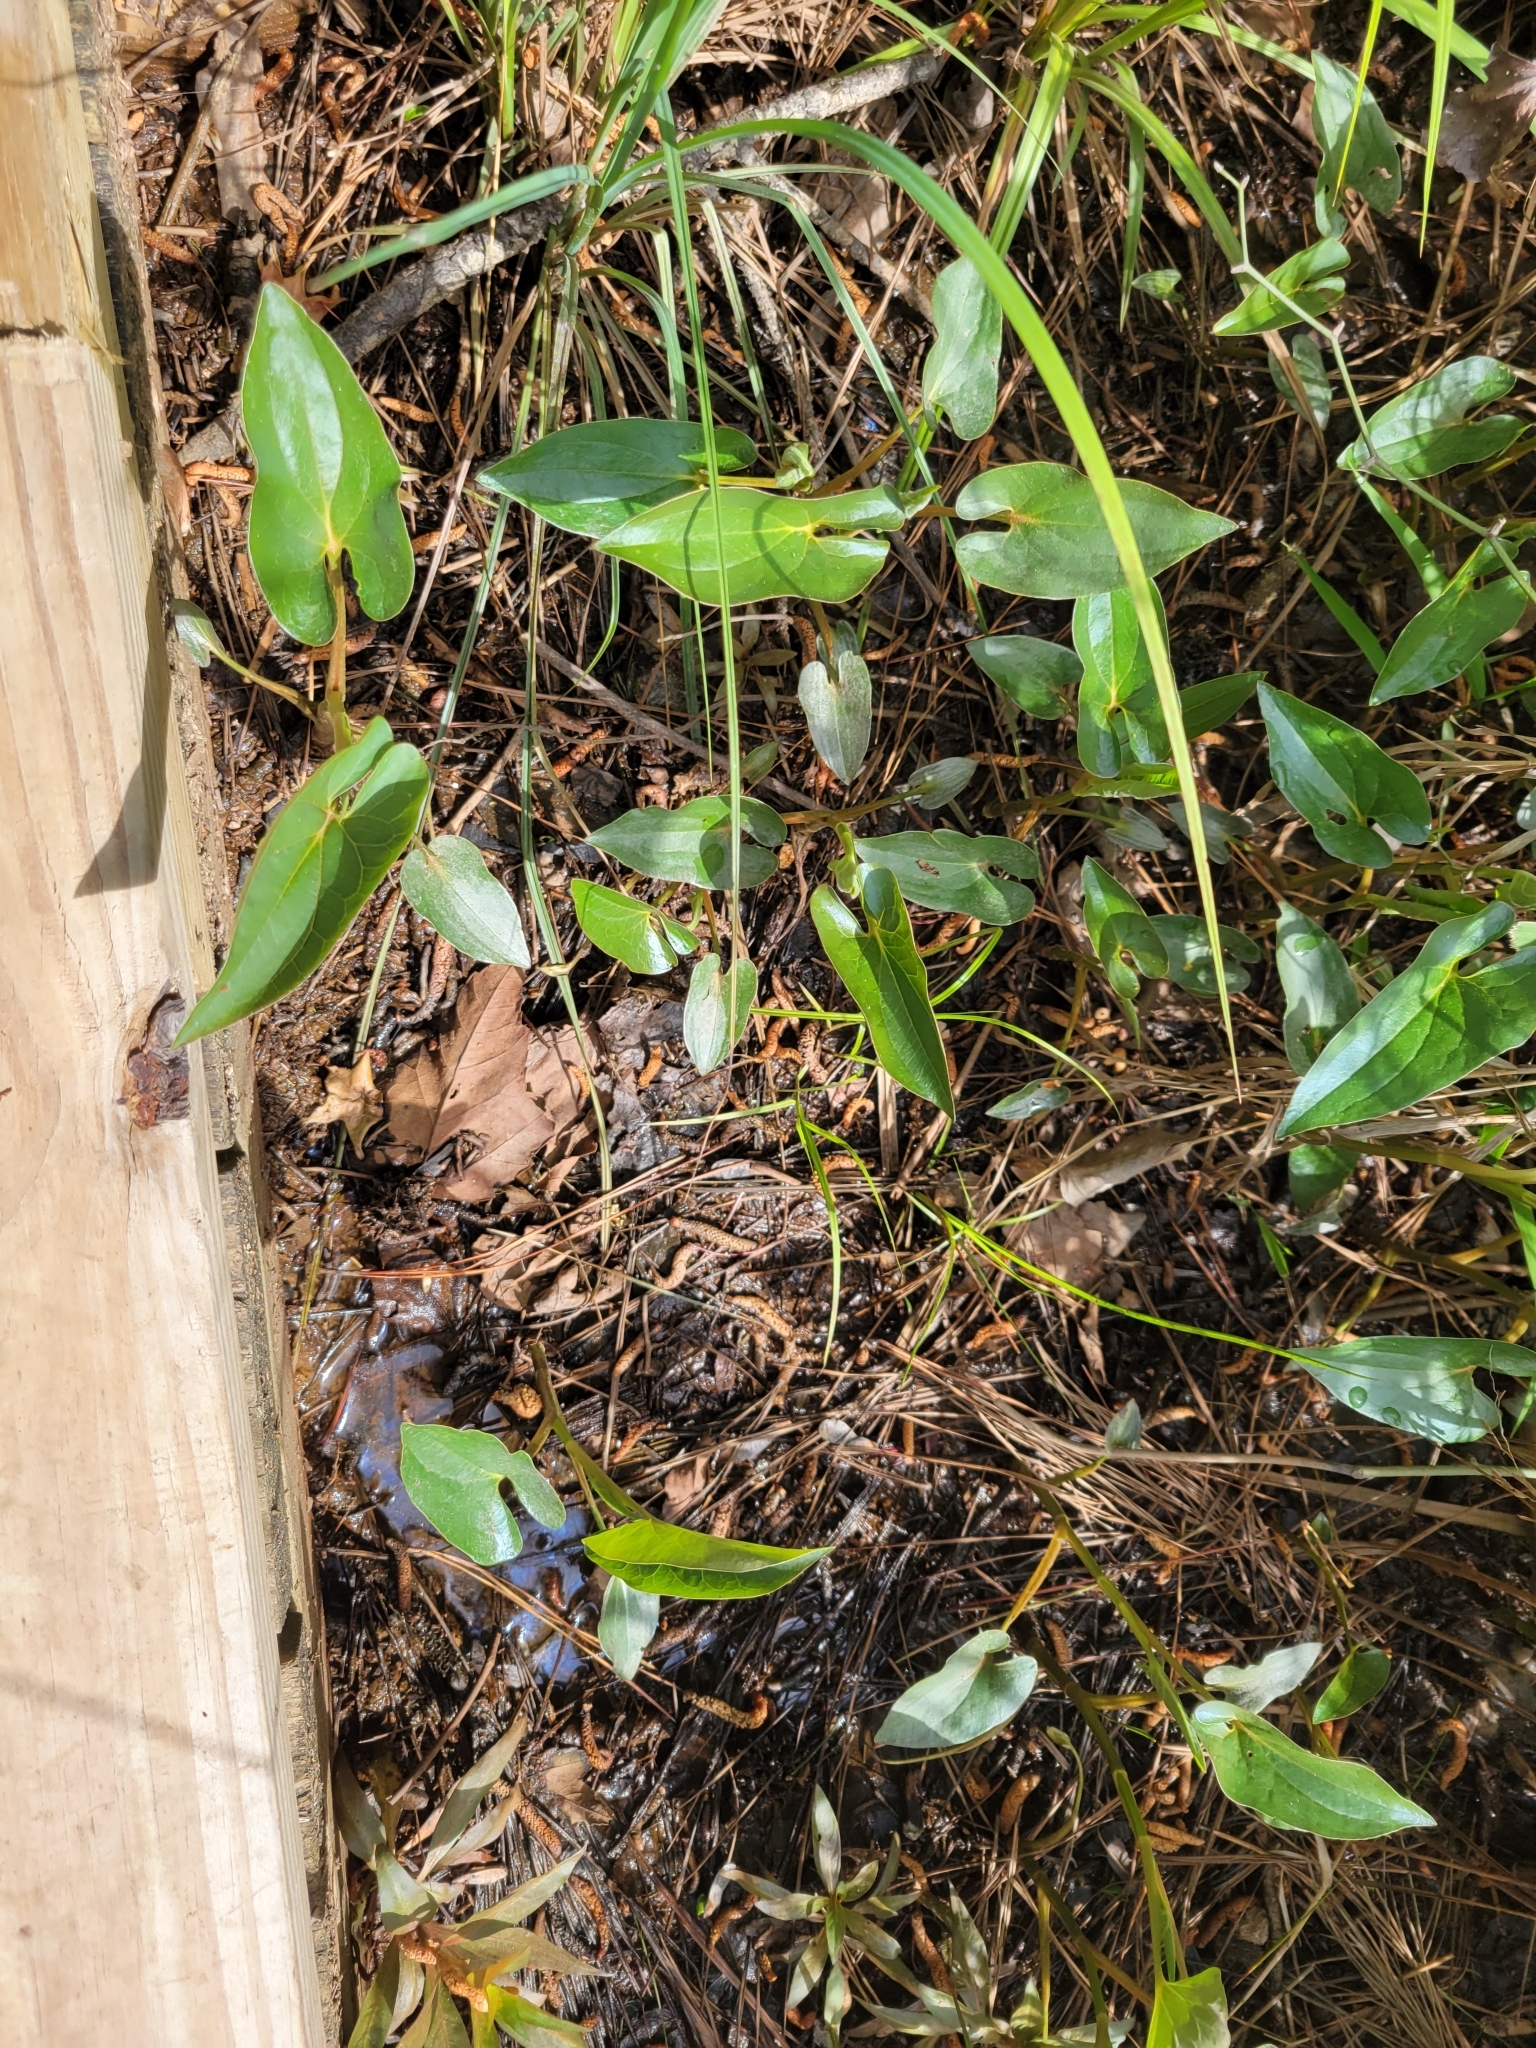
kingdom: Plantae
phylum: Tracheophyta
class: Magnoliopsida
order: Piperales
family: Saururaceae
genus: Saururus
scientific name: Saururus cernuus
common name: Lizard's-tail
